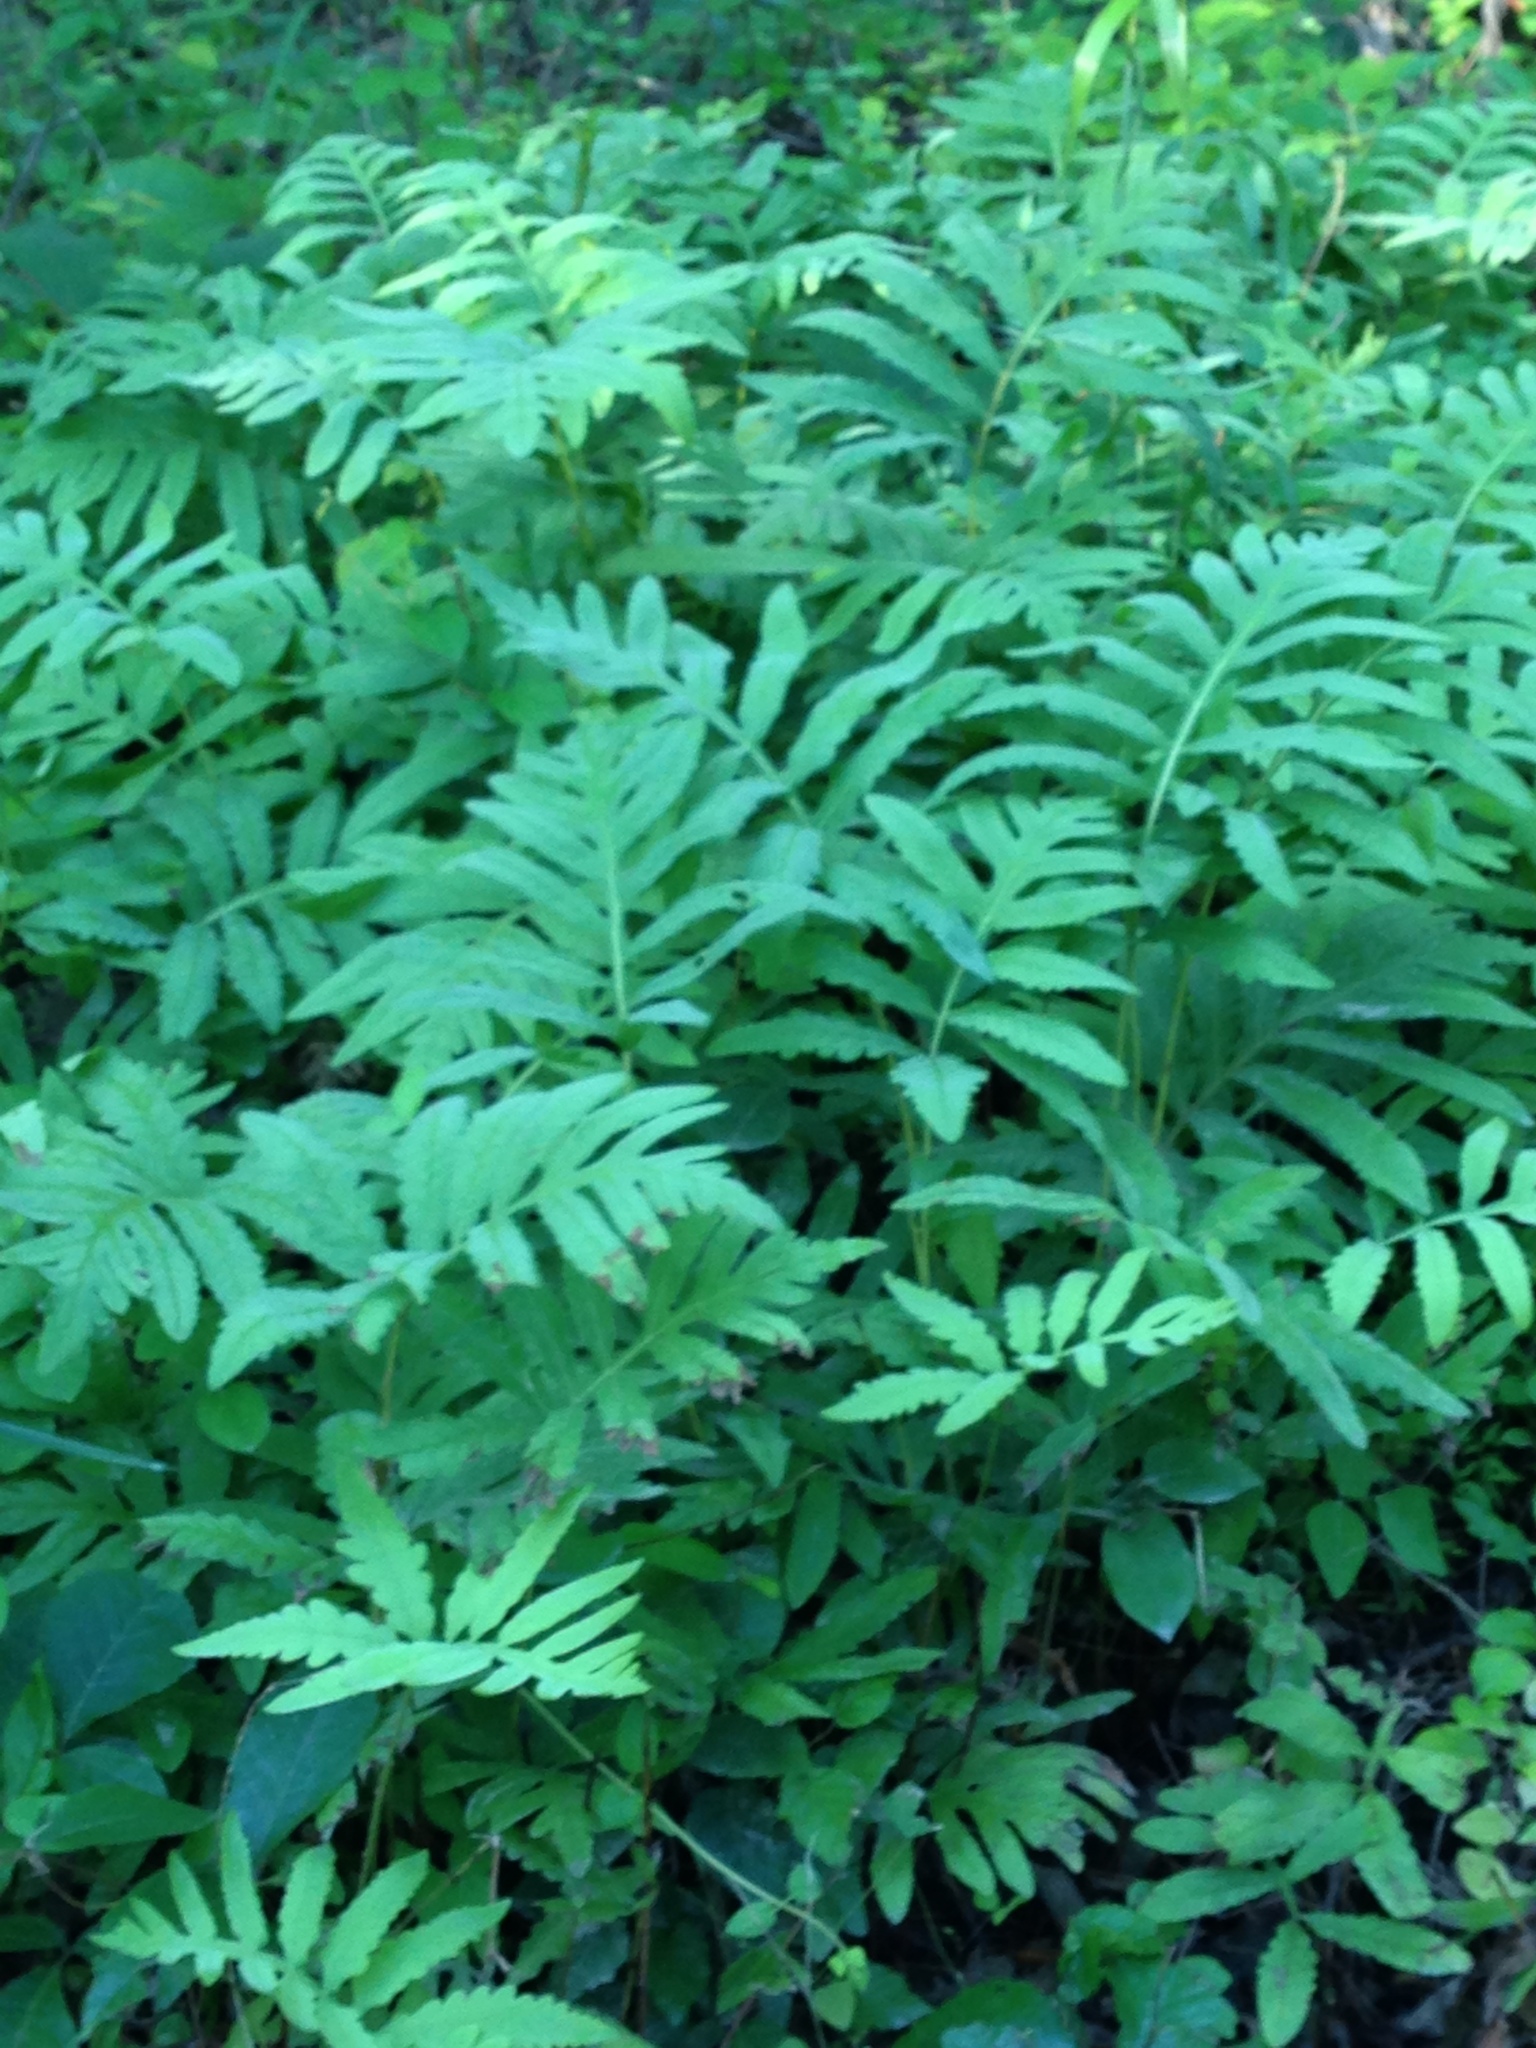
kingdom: Plantae
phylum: Tracheophyta
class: Polypodiopsida
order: Polypodiales
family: Onocleaceae
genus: Onoclea
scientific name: Onoclea sensibilis
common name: Sensitive fern
